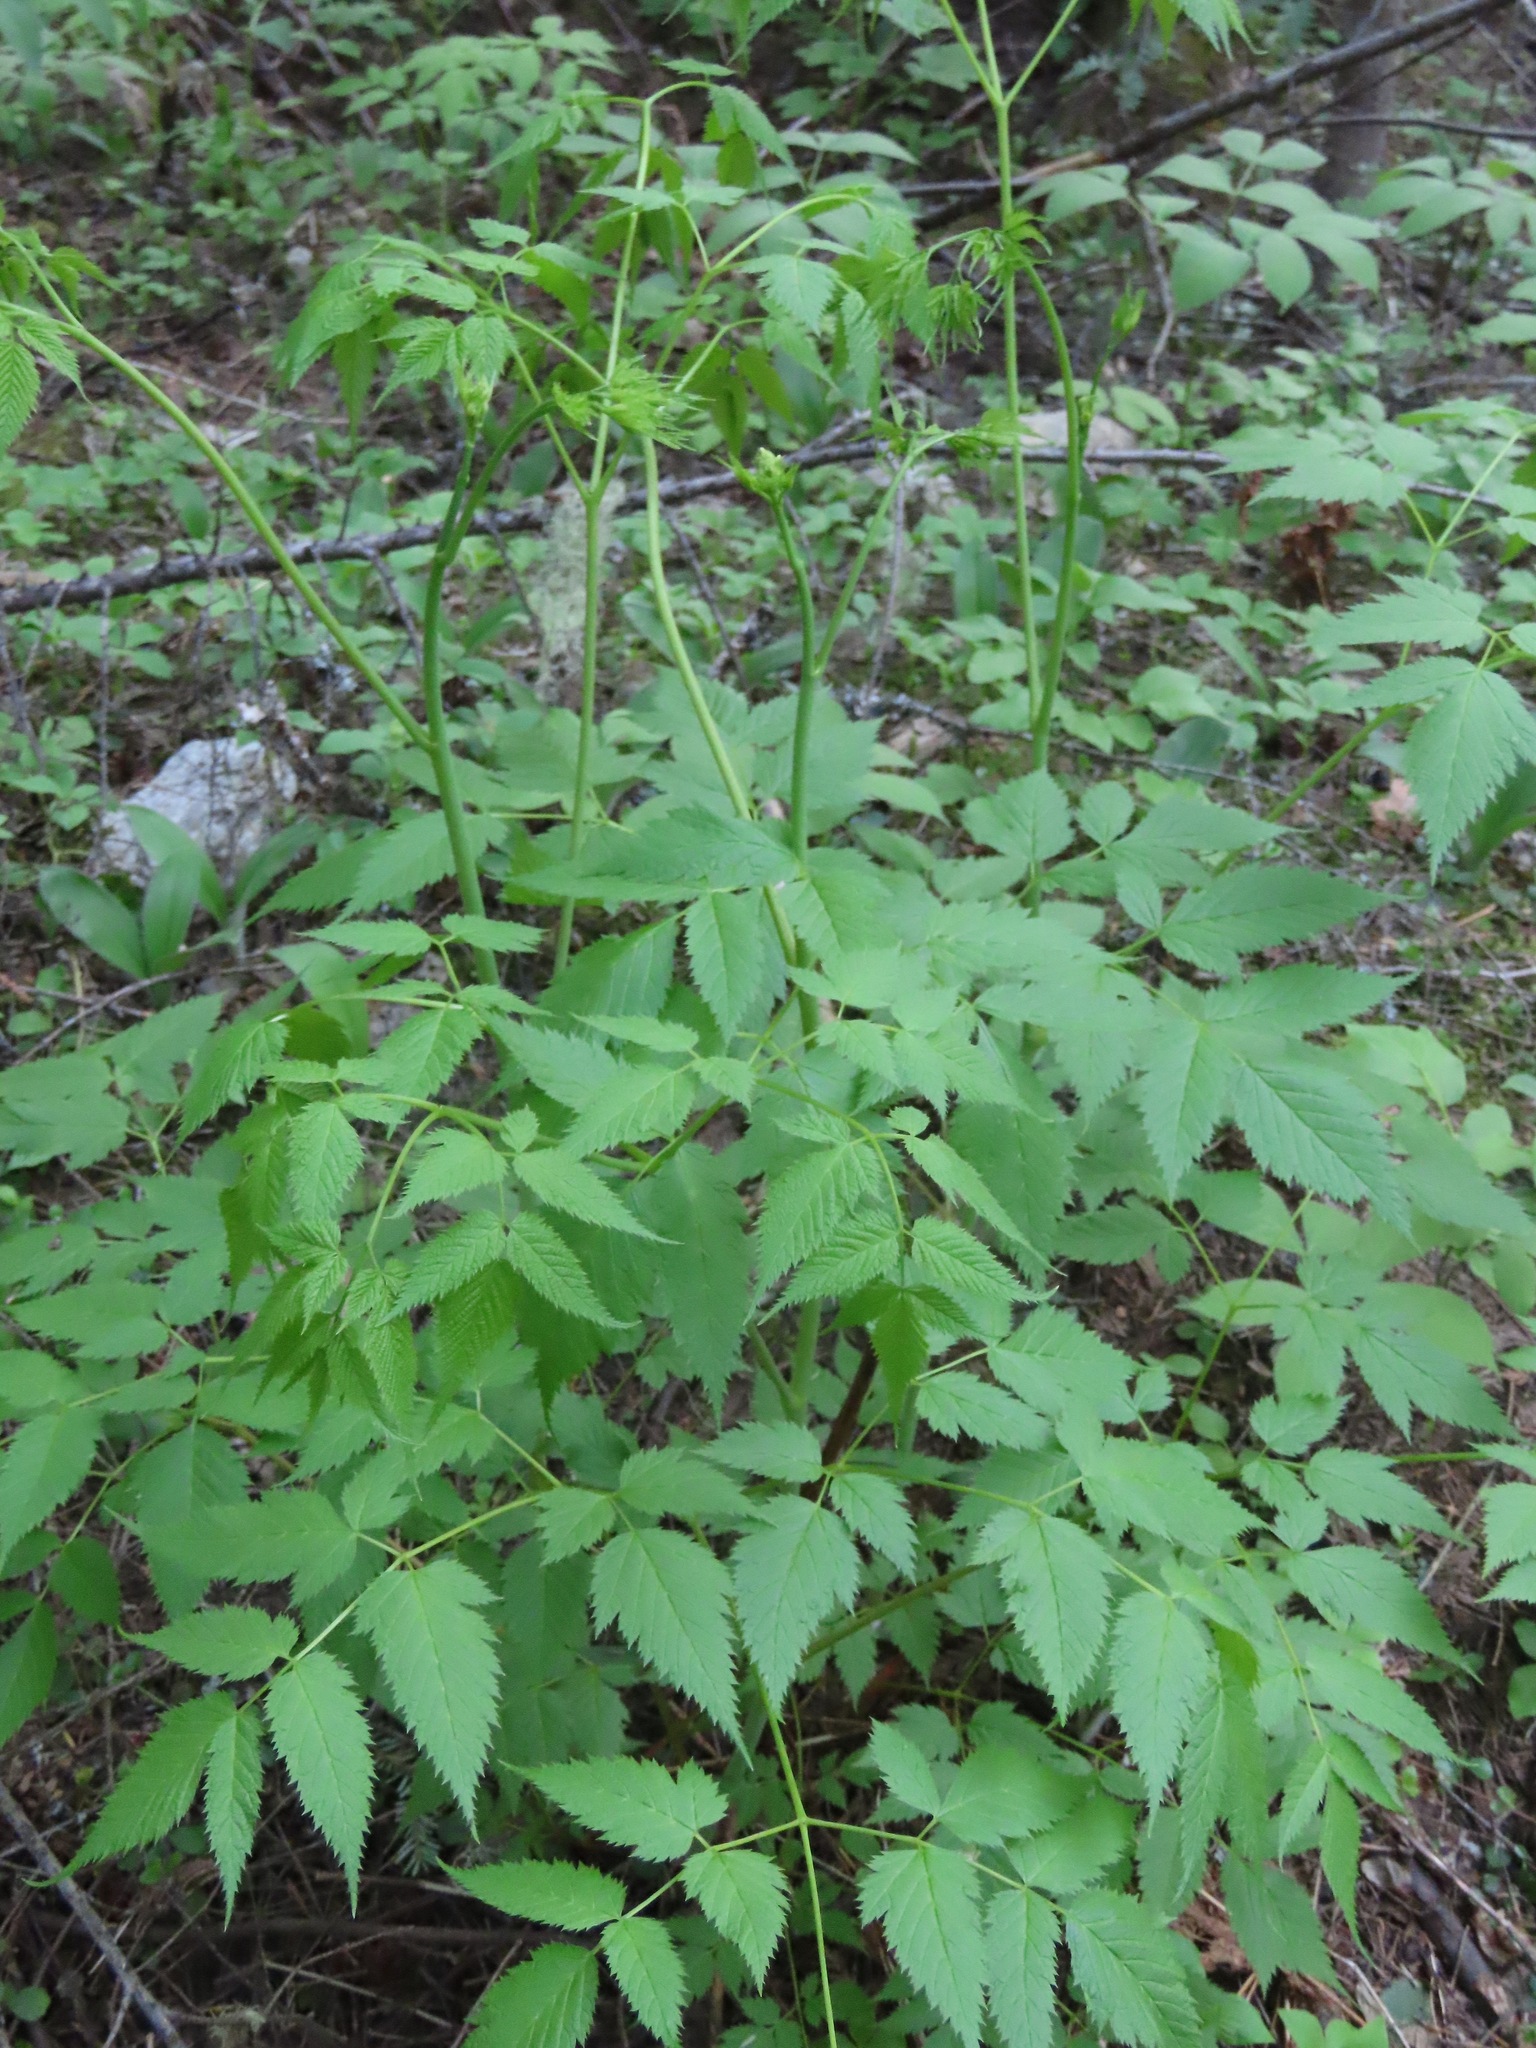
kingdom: Plantae
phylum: Tracheophyta
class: Magnoliopsida
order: Rosales
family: Rosaceae
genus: Aruncus
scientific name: Aruncus dioicus
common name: Buck's-beard
